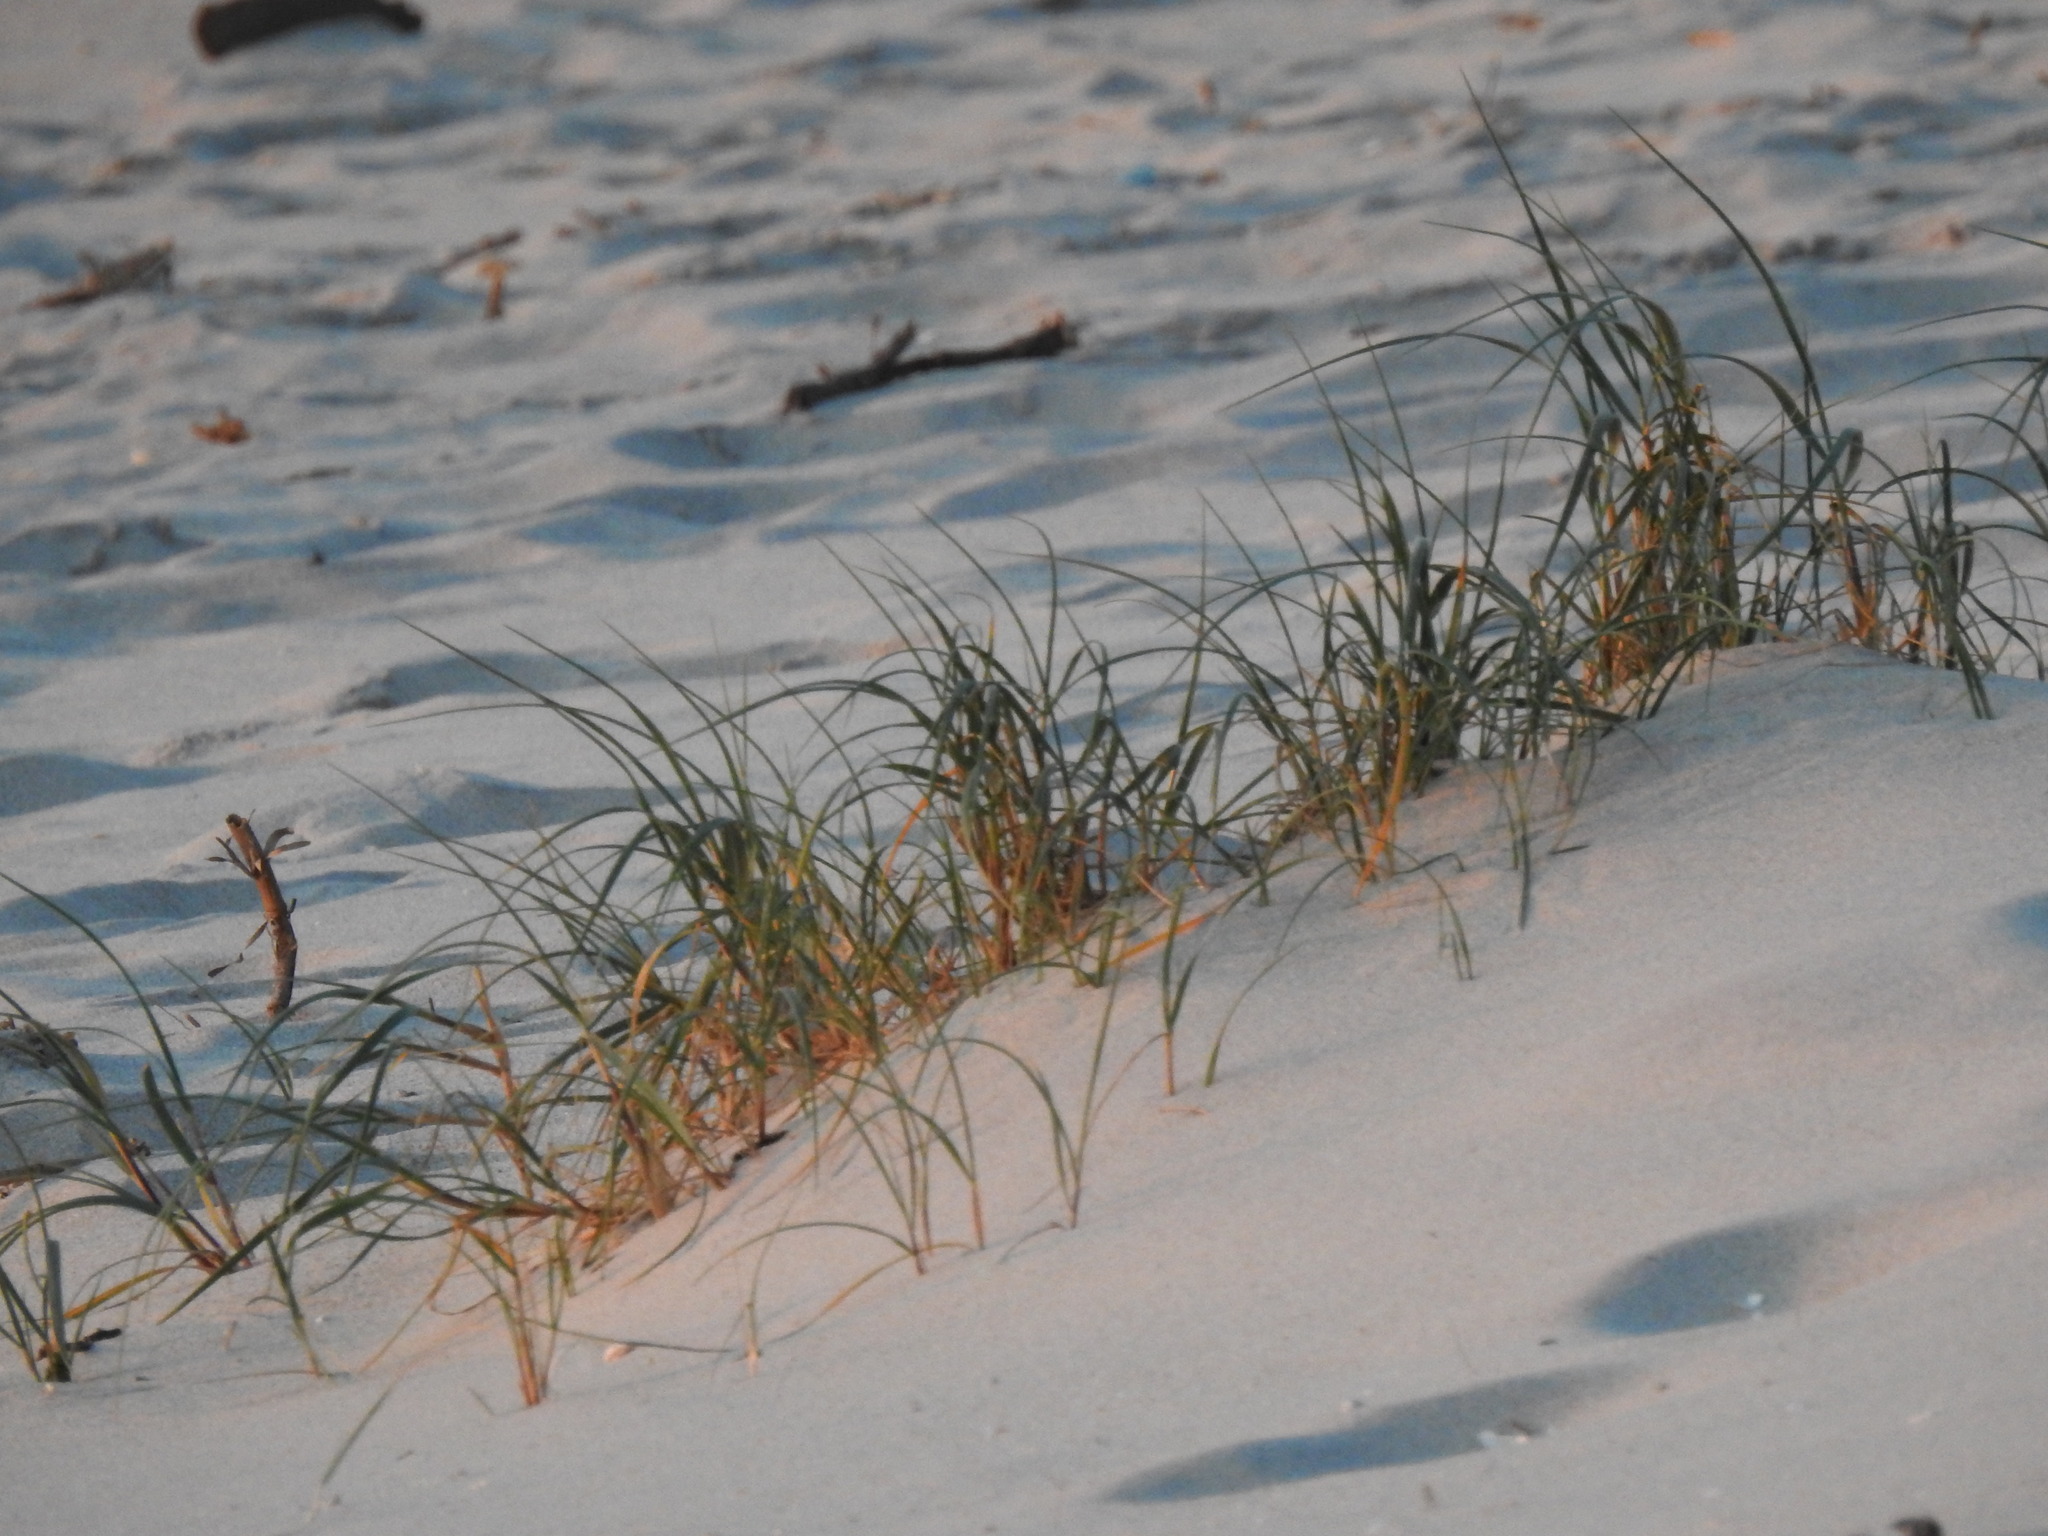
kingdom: Plantae
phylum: Tracheophyta
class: Liliopsida
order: Poales
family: Poaceae
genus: Thinopyrum
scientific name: Thinopyrum junceum
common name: Russian wheatgrass
